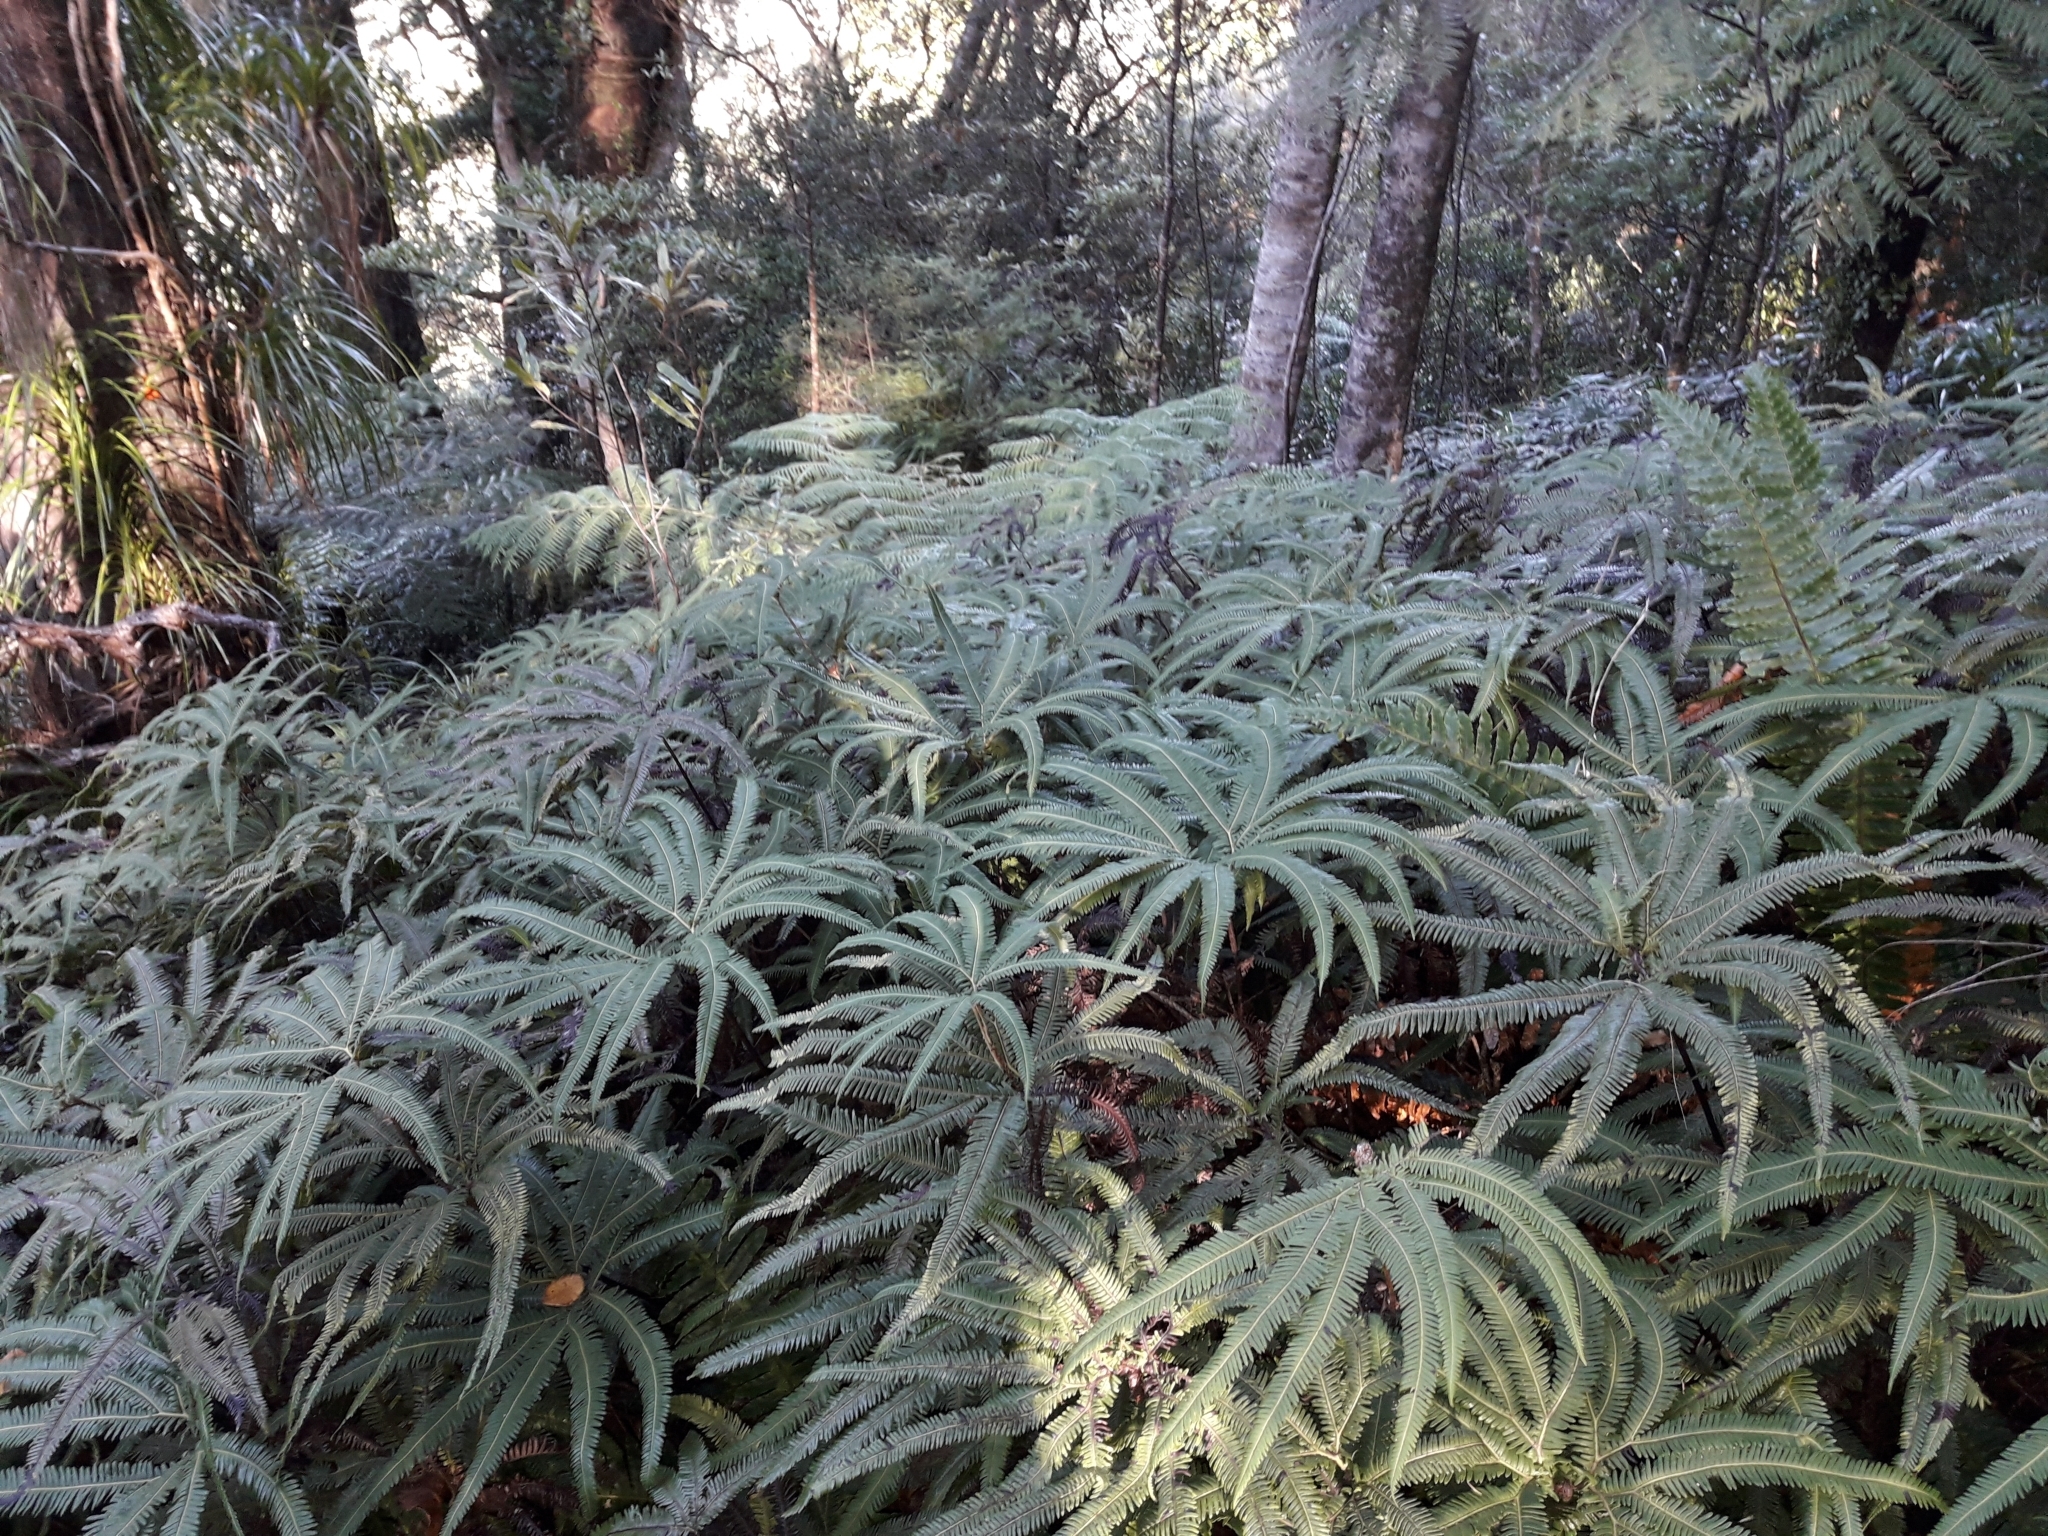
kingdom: Plantae
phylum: Tracheophyta
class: Polypodiopsida
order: Gleicheniales
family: Gleicheniaceae
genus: Sticherus
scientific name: Sticherus cunninghamii
